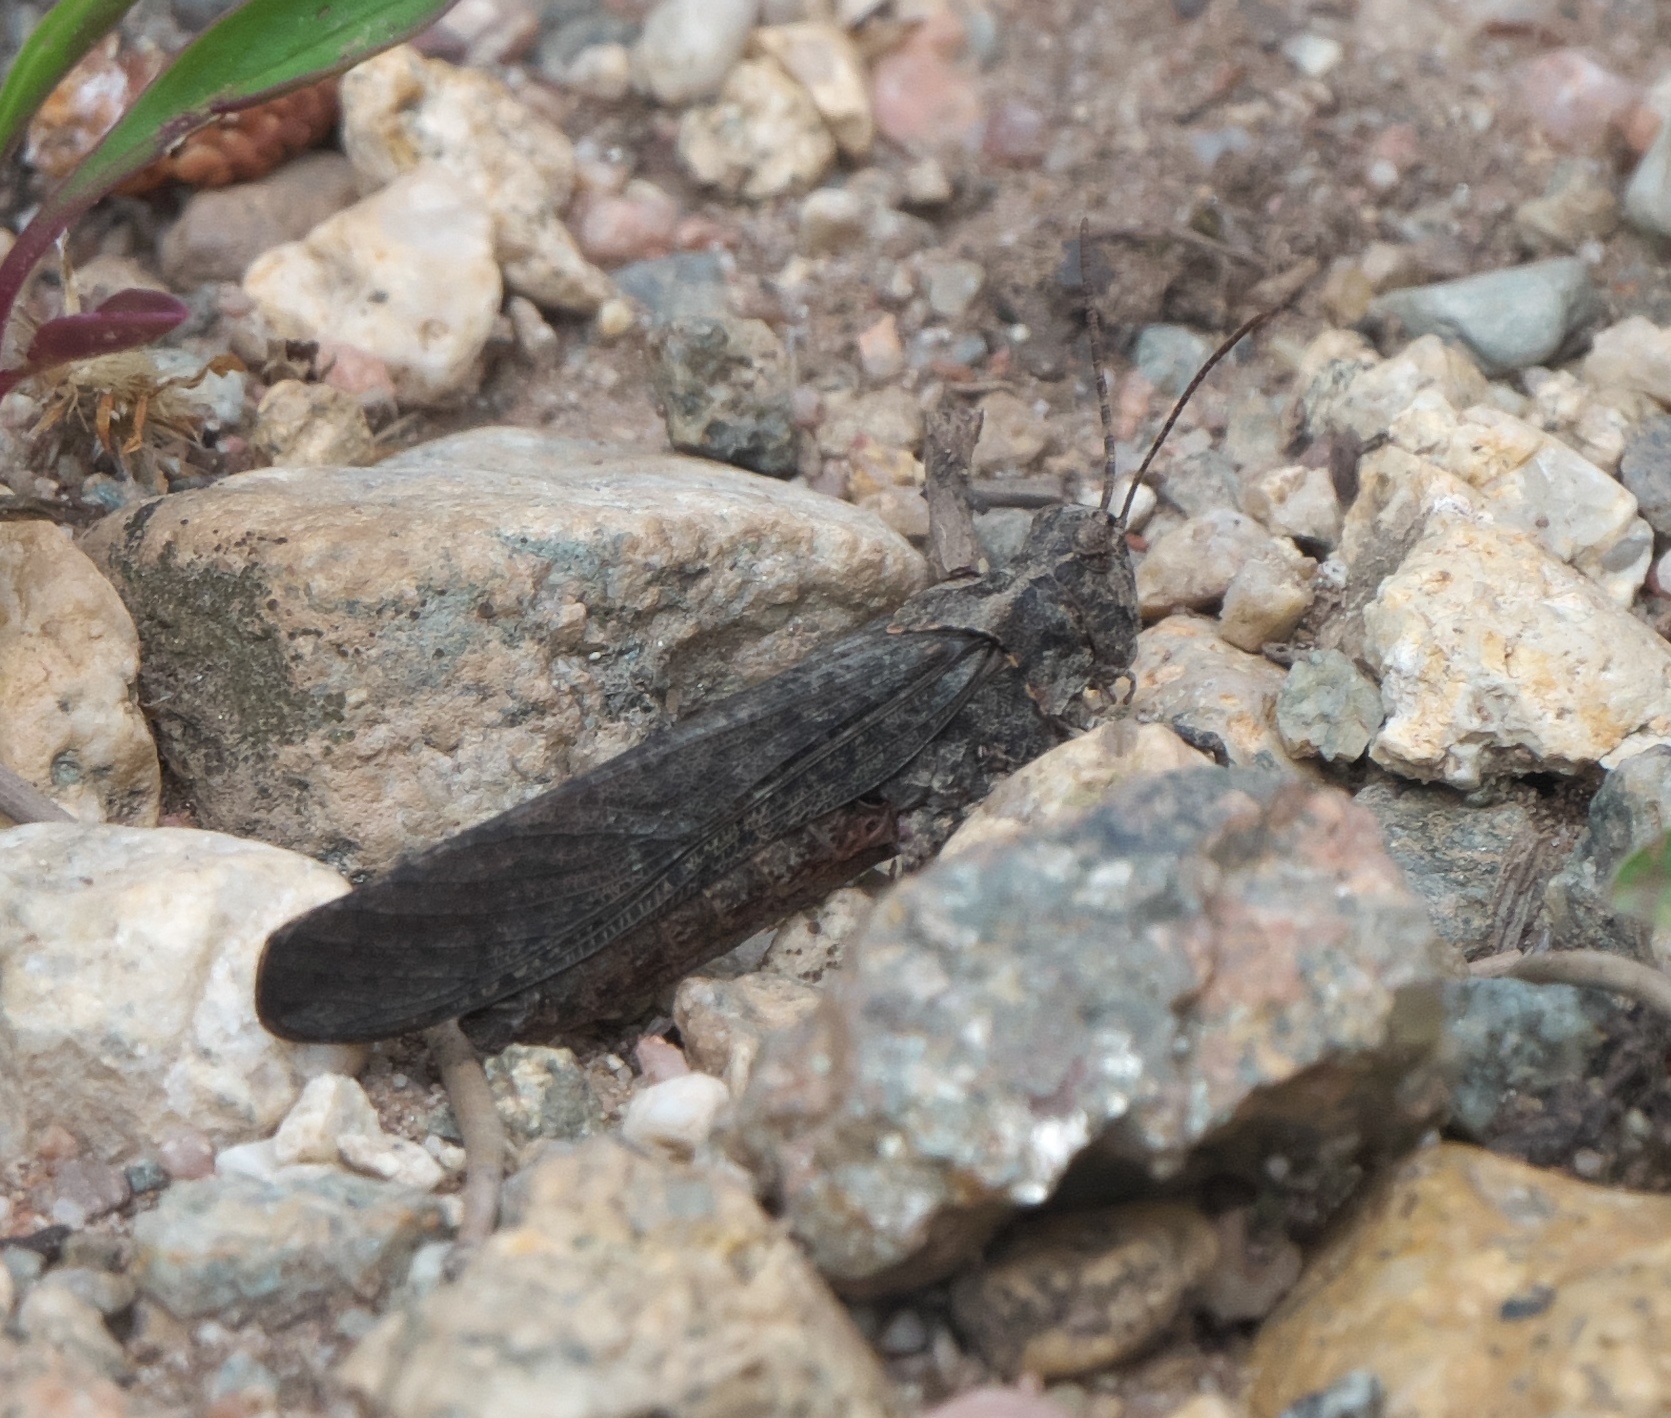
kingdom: Animalia
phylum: Arthropoda
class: Insecta
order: Orthoptera
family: Acrididae
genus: Trimerotropis
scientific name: Trimerotropis verruculata
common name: Crackling forest grasshopper
